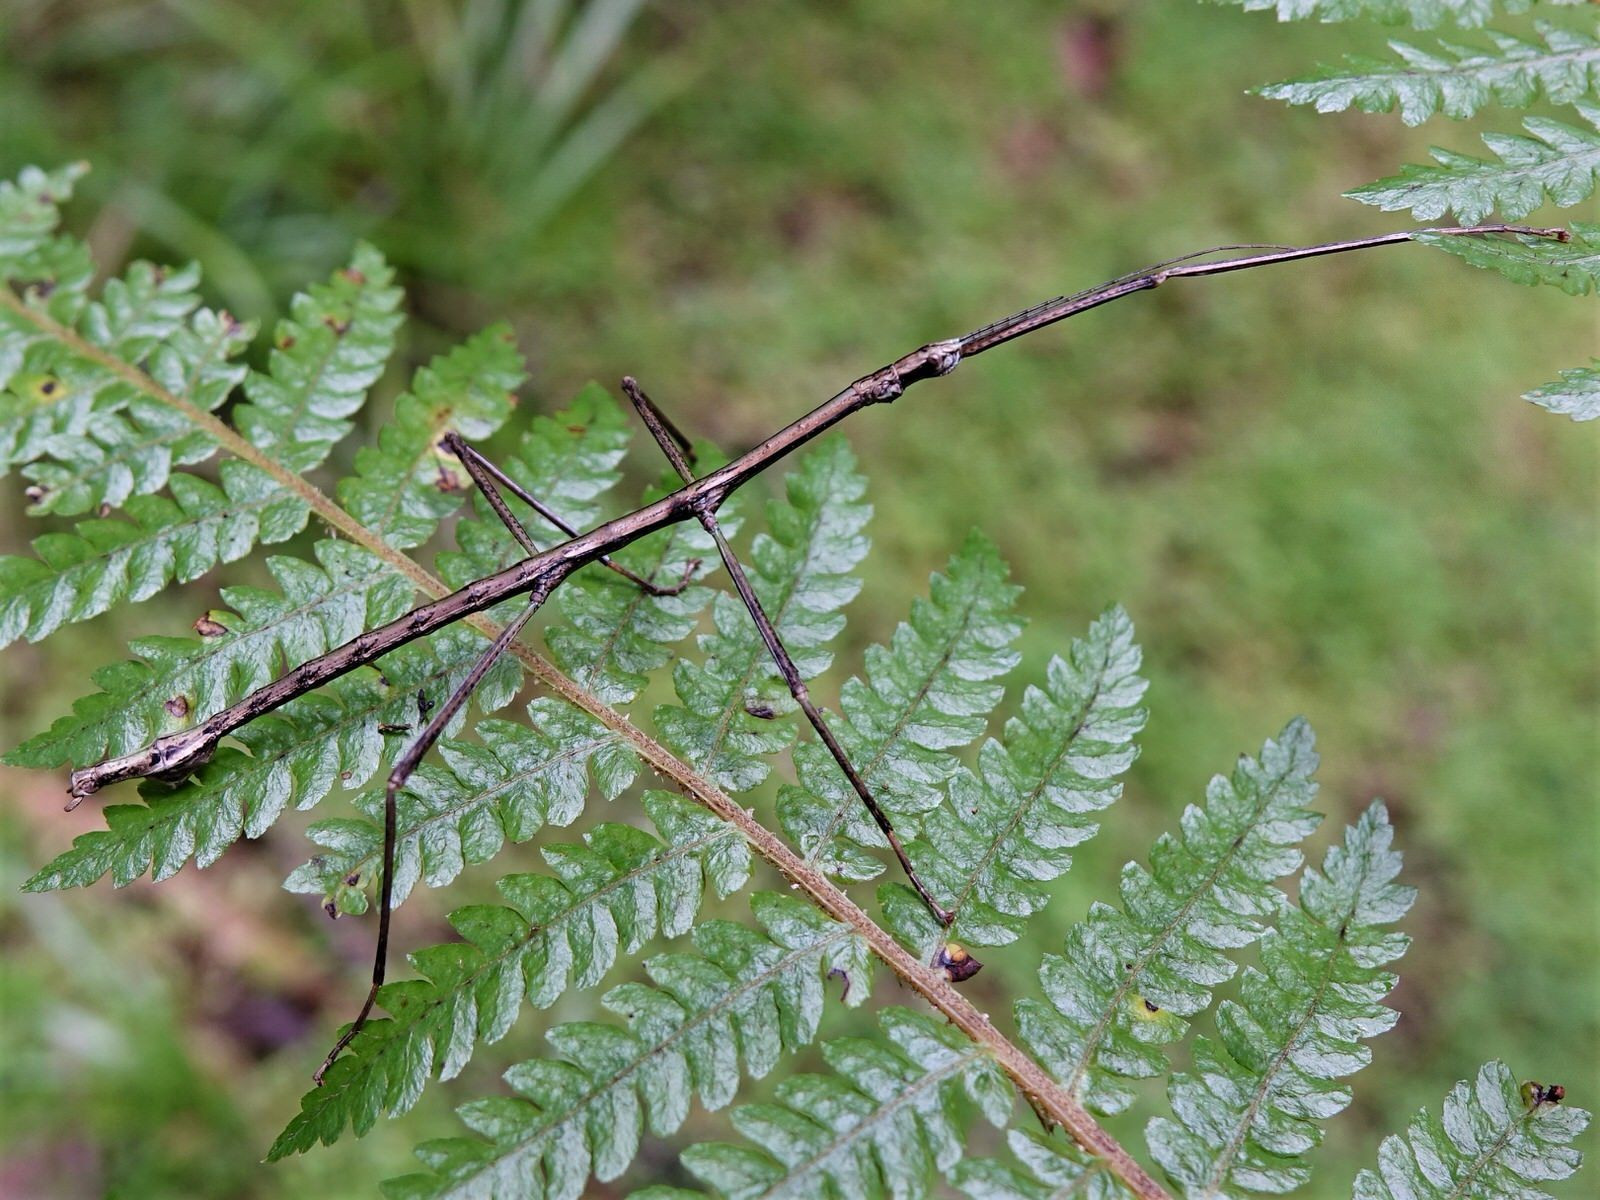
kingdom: Animalia
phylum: Arthropoda
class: Insecta
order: Phasmida
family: Phasmatidae
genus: Clitarchus
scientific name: Clitarchus hookeri
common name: Smooth stick insect
